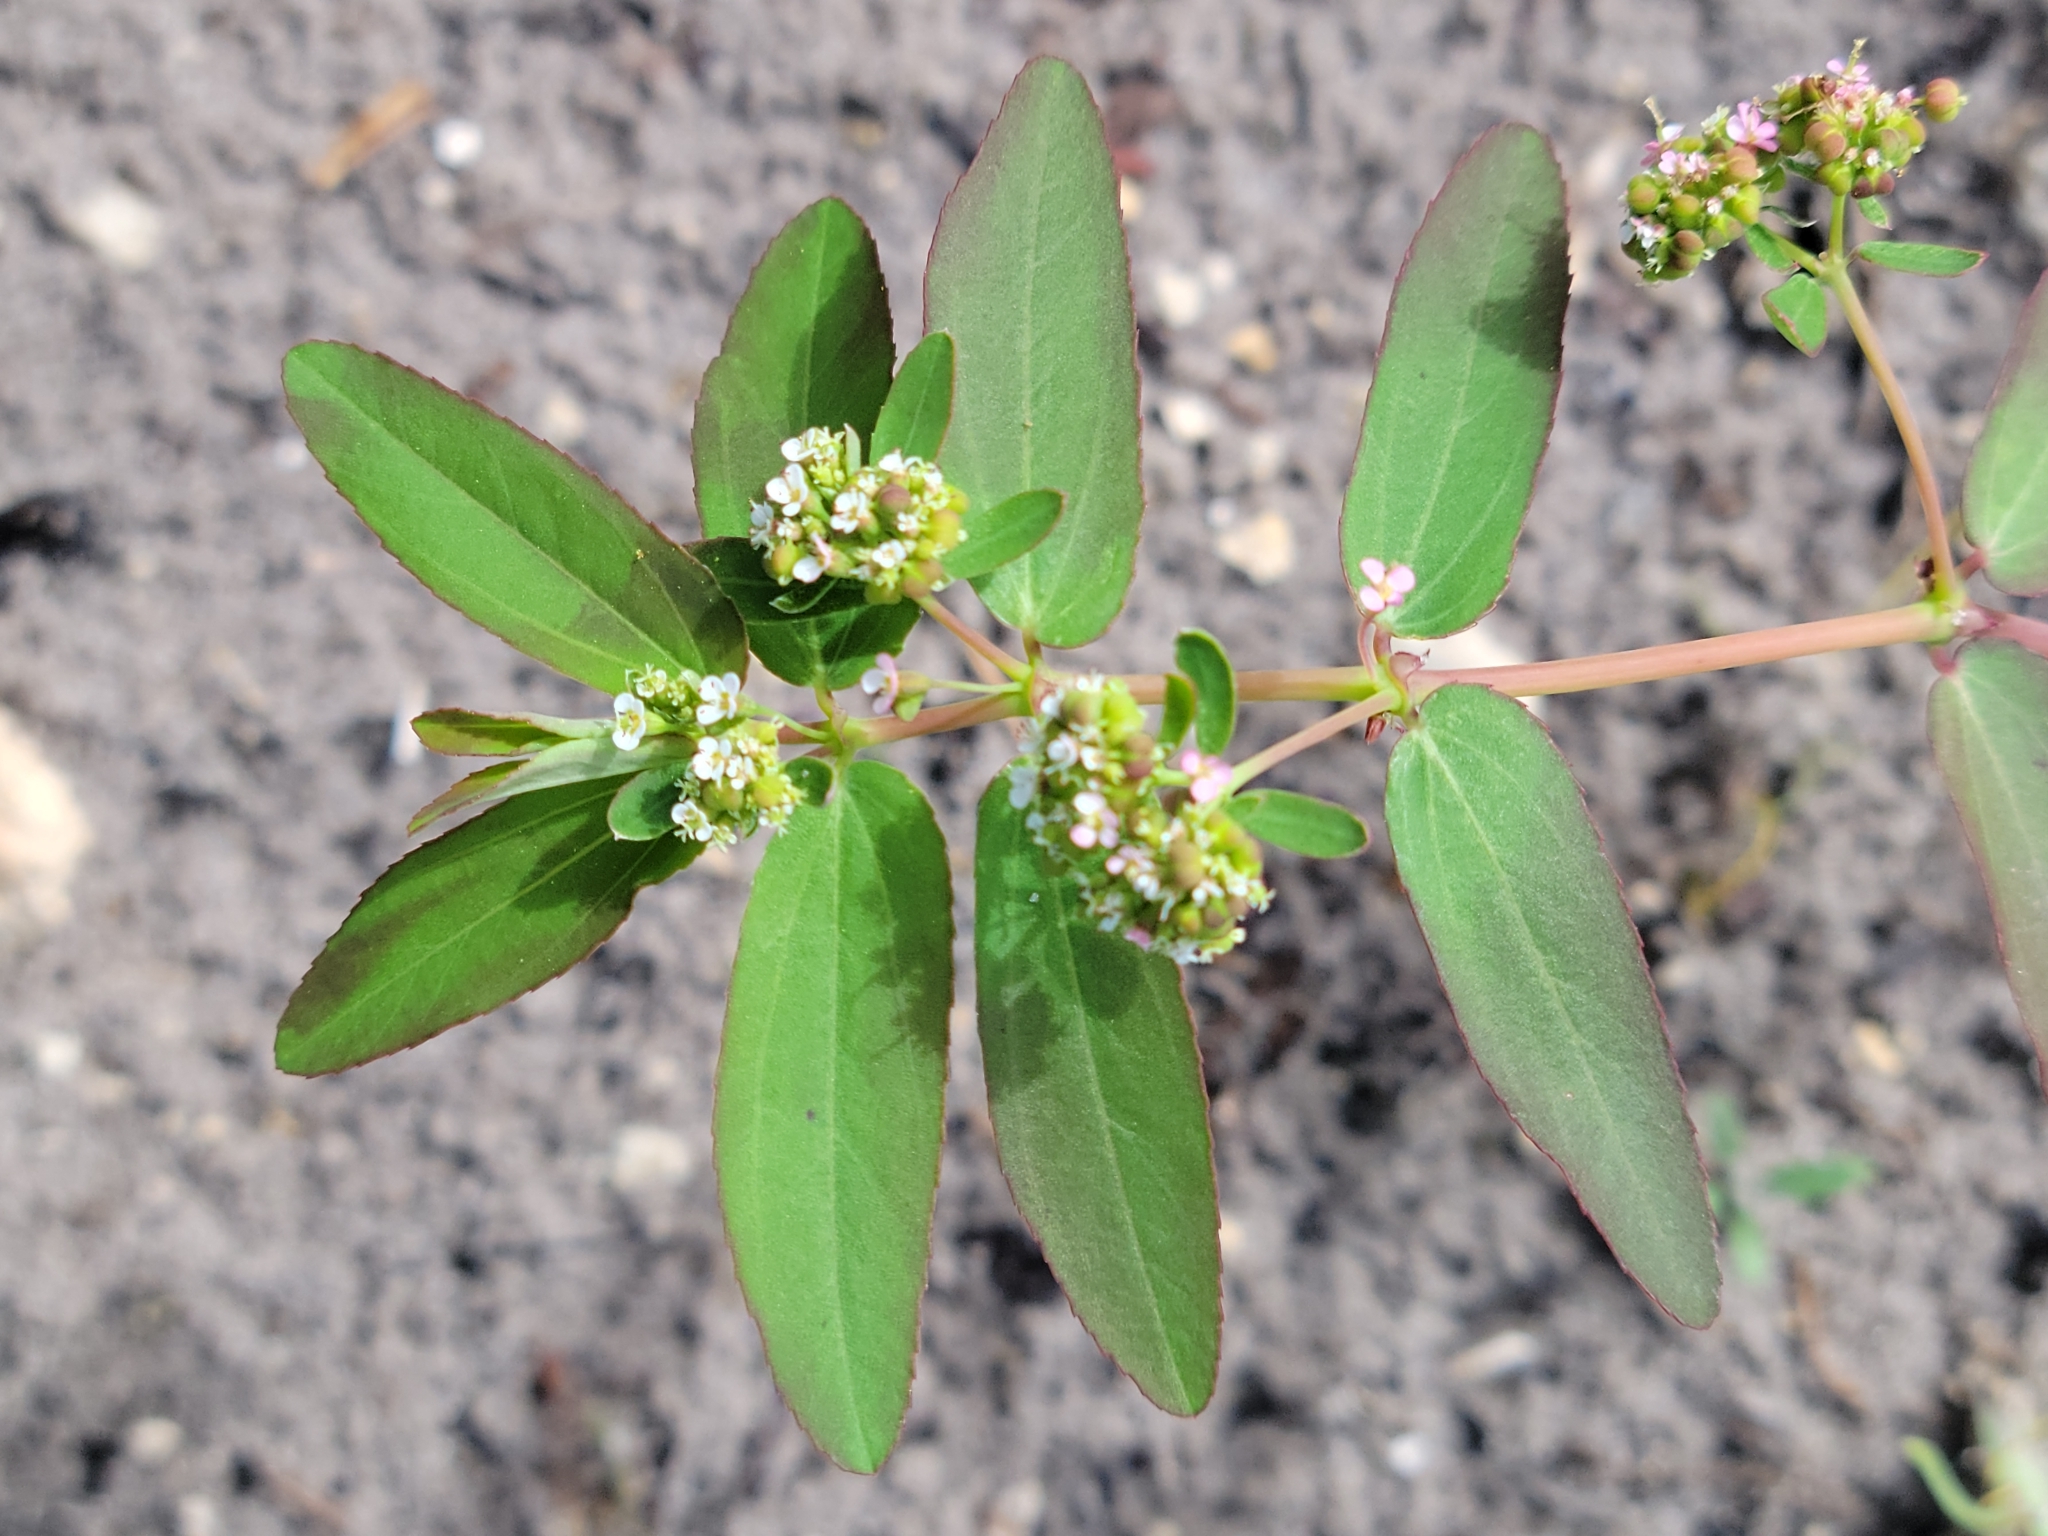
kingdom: Plantae
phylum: Tracheophyta
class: Magnoliopsida
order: Malpighiales
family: Euphorbiaceae
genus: Euphorbia
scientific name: Euphorbia hypericifolia
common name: Graceful sandmat
